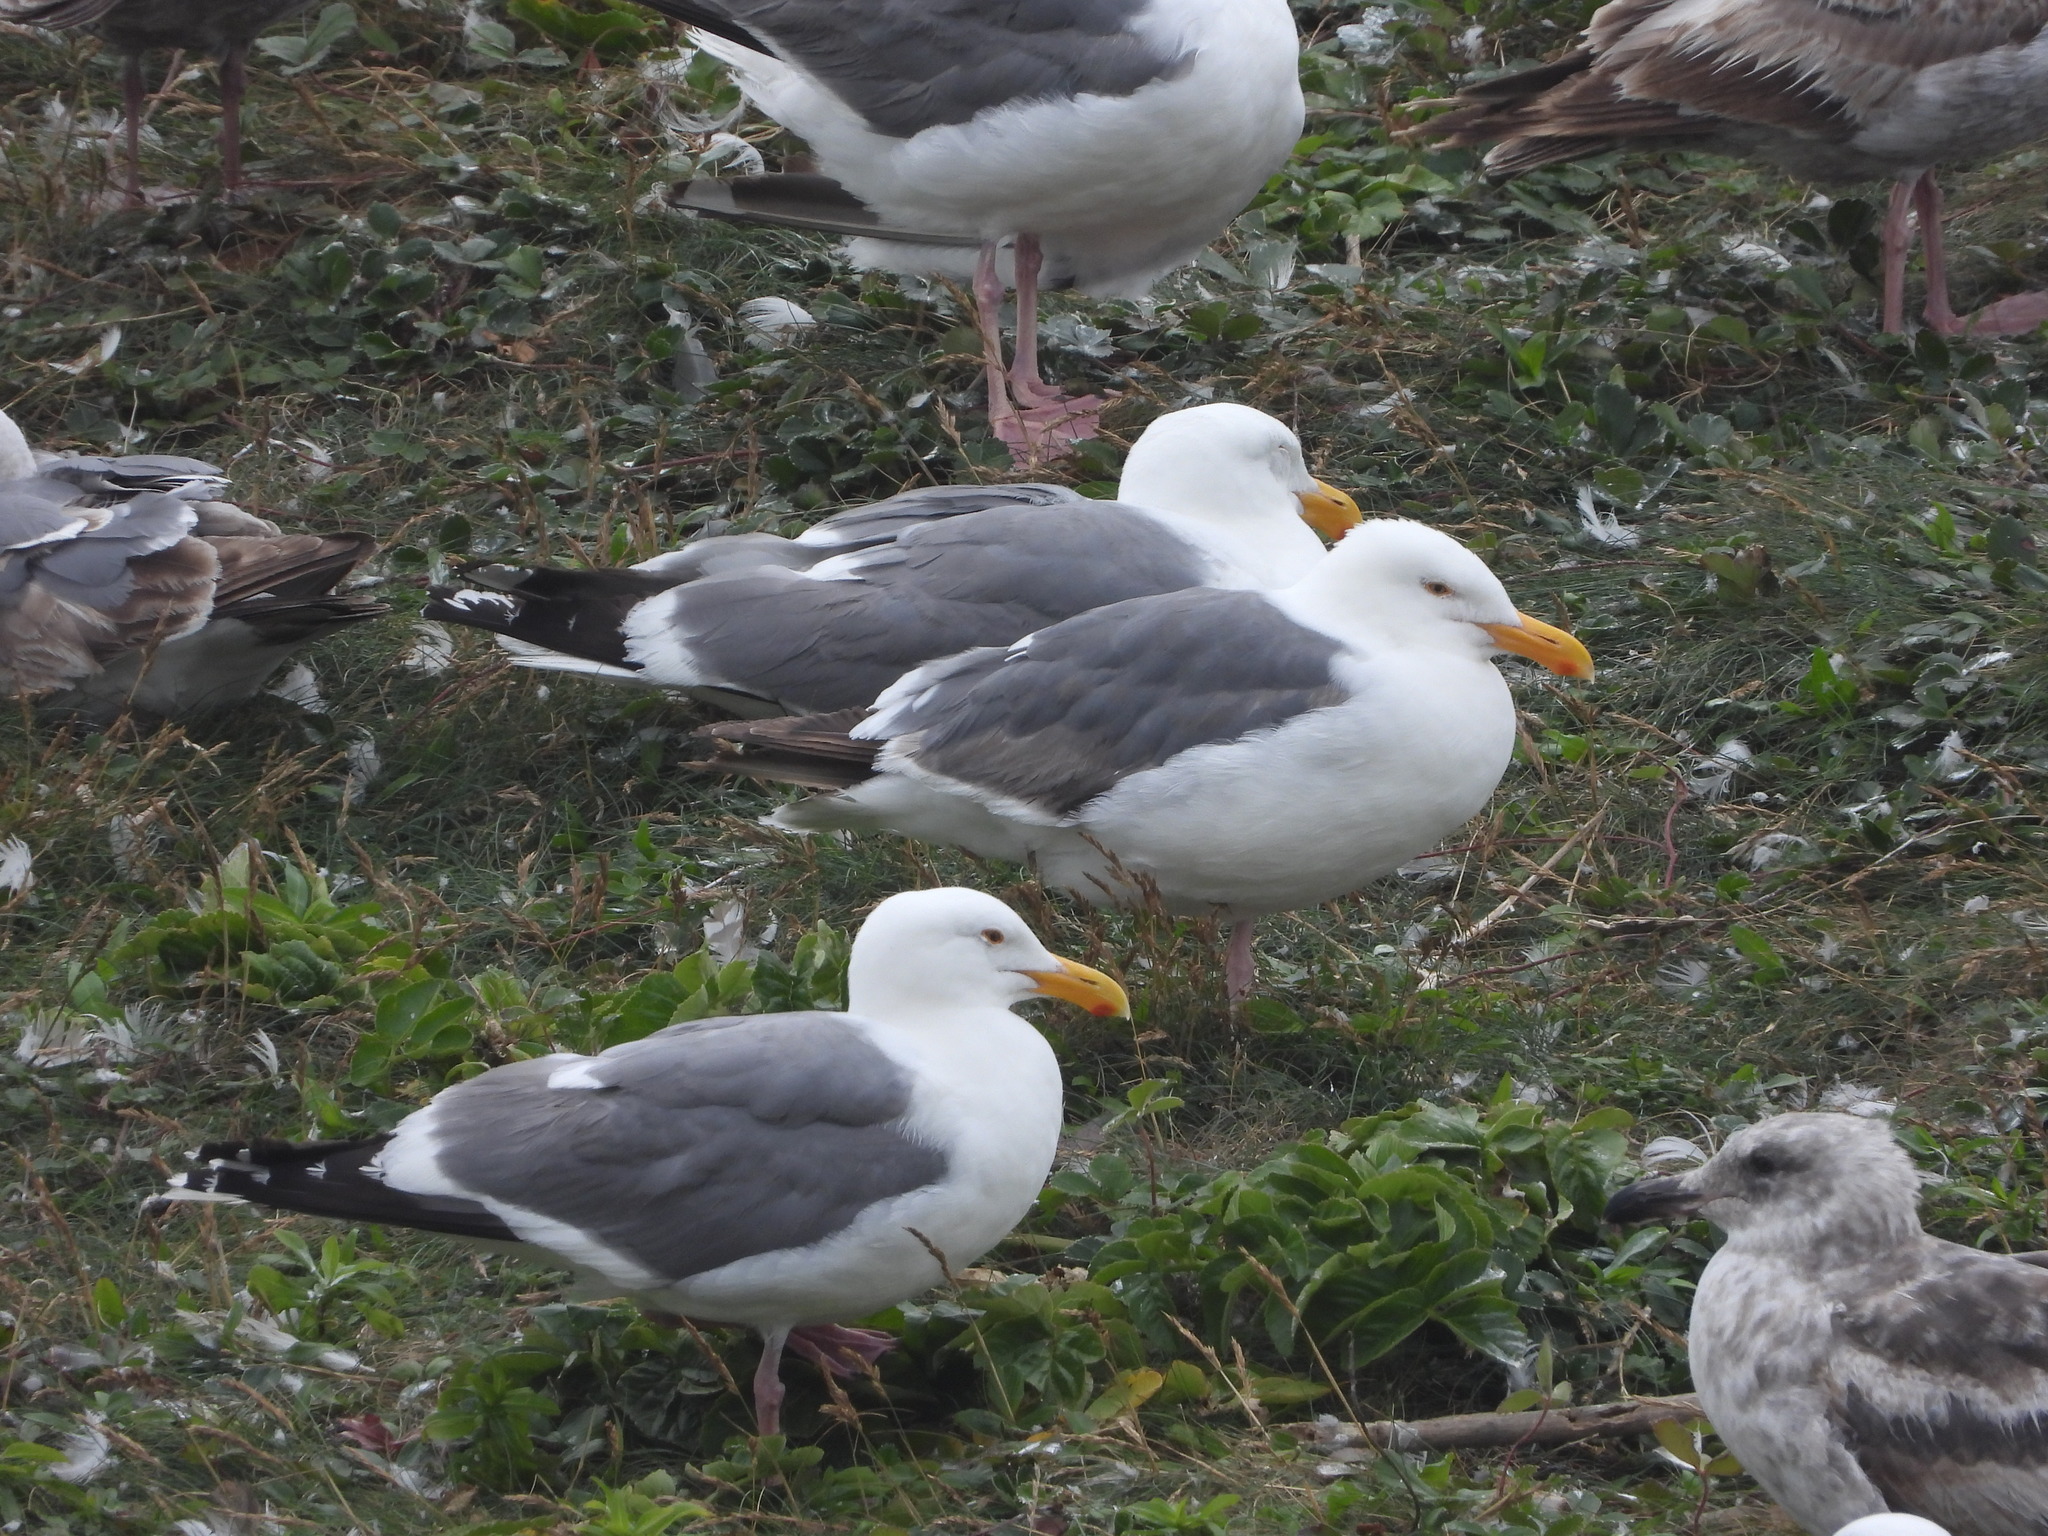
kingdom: Animalia
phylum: Chordata
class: Aves
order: Charadriiformes
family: Laridae
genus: Larus
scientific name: Larus occidentalis
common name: Western gull
